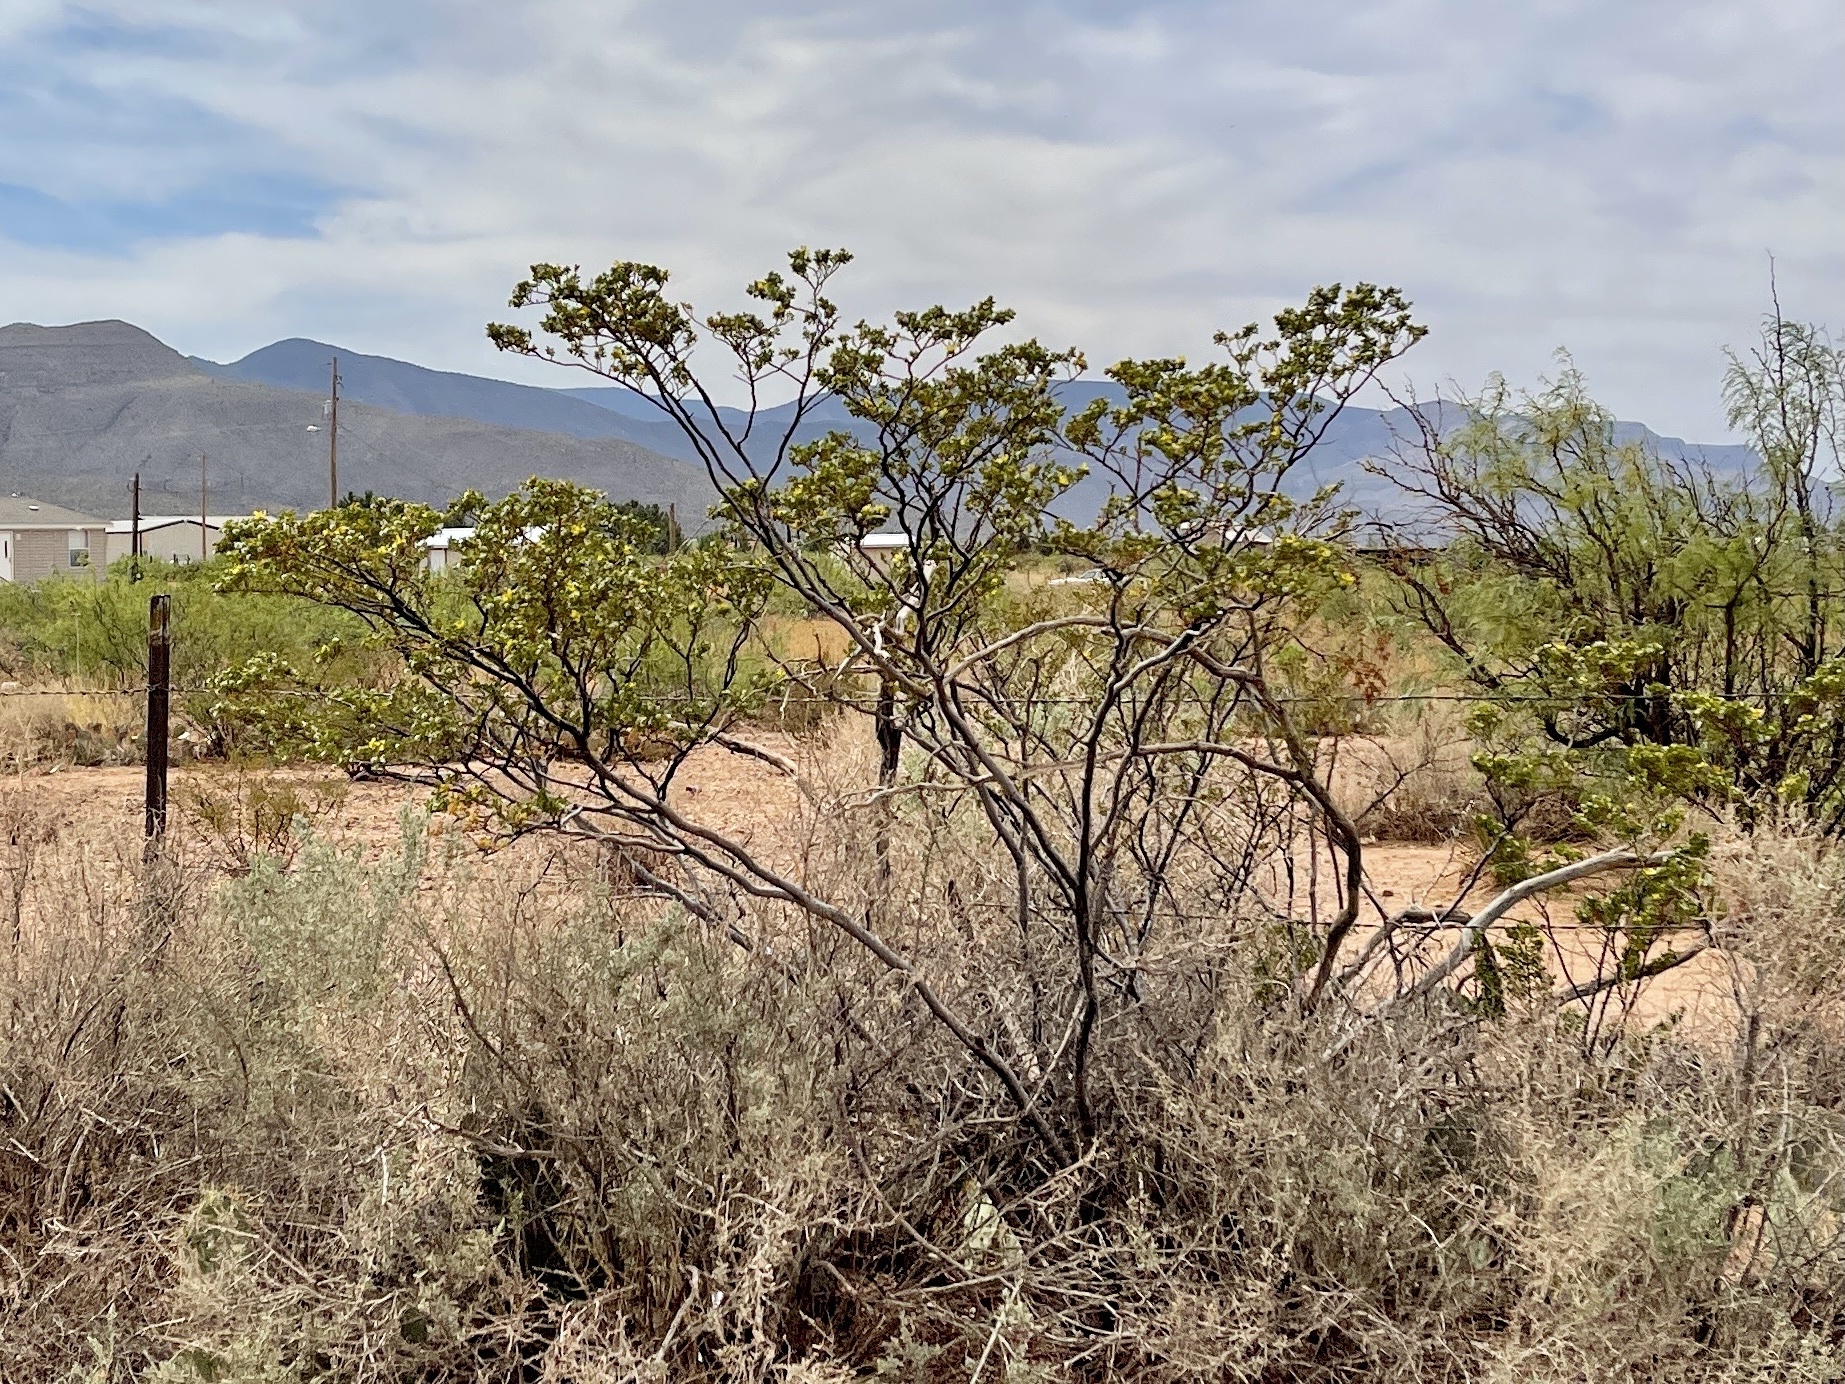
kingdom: Plantae
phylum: Tracheophyta
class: Magnoliopsida
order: Zygophyllales
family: Zygophyllaceae
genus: Larrea
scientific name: Larrea tridentata
